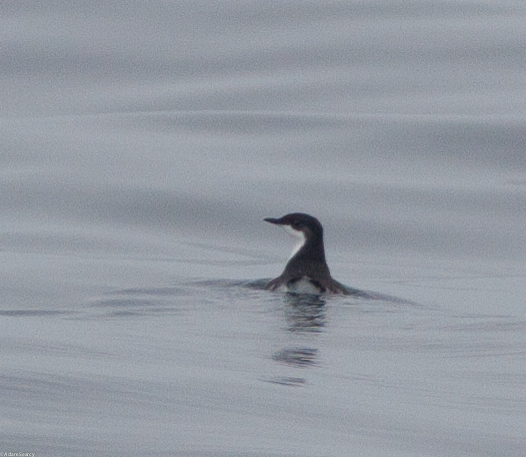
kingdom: Animalia
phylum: Chordata
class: Aves
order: Charadriiformes
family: Alcidae
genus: Synthliboramphus
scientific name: Synthliboramphus scrippsi
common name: Scripps's murrelet
